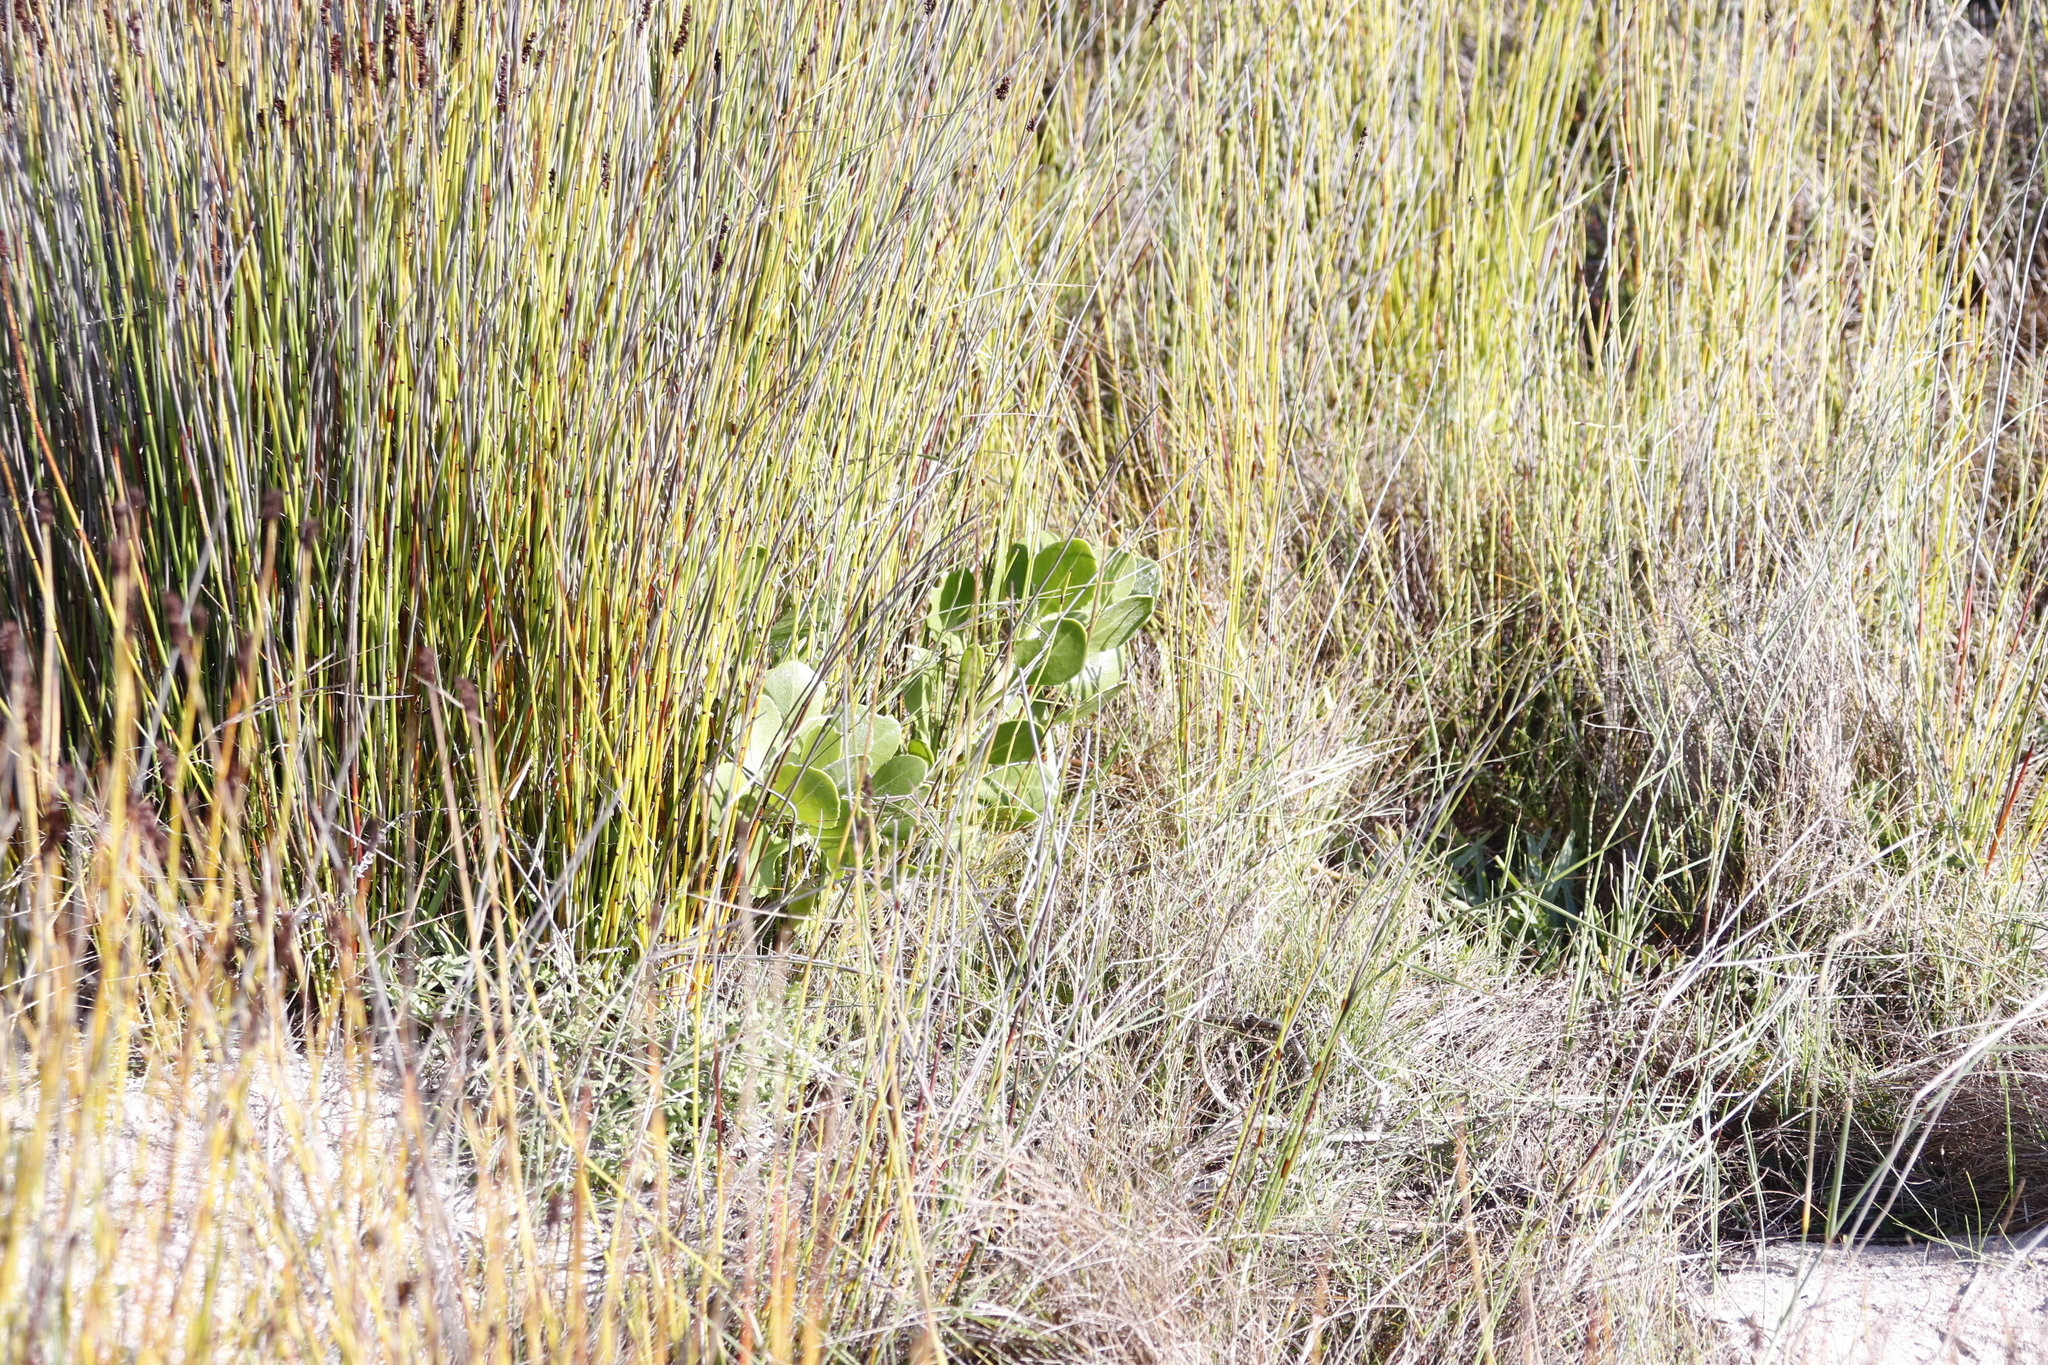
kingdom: Plantae
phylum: Tracheophyta
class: Magnoliopsida
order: Asterales
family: Asteraceae
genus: Osteospermum
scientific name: Osteospermum moniliferum
